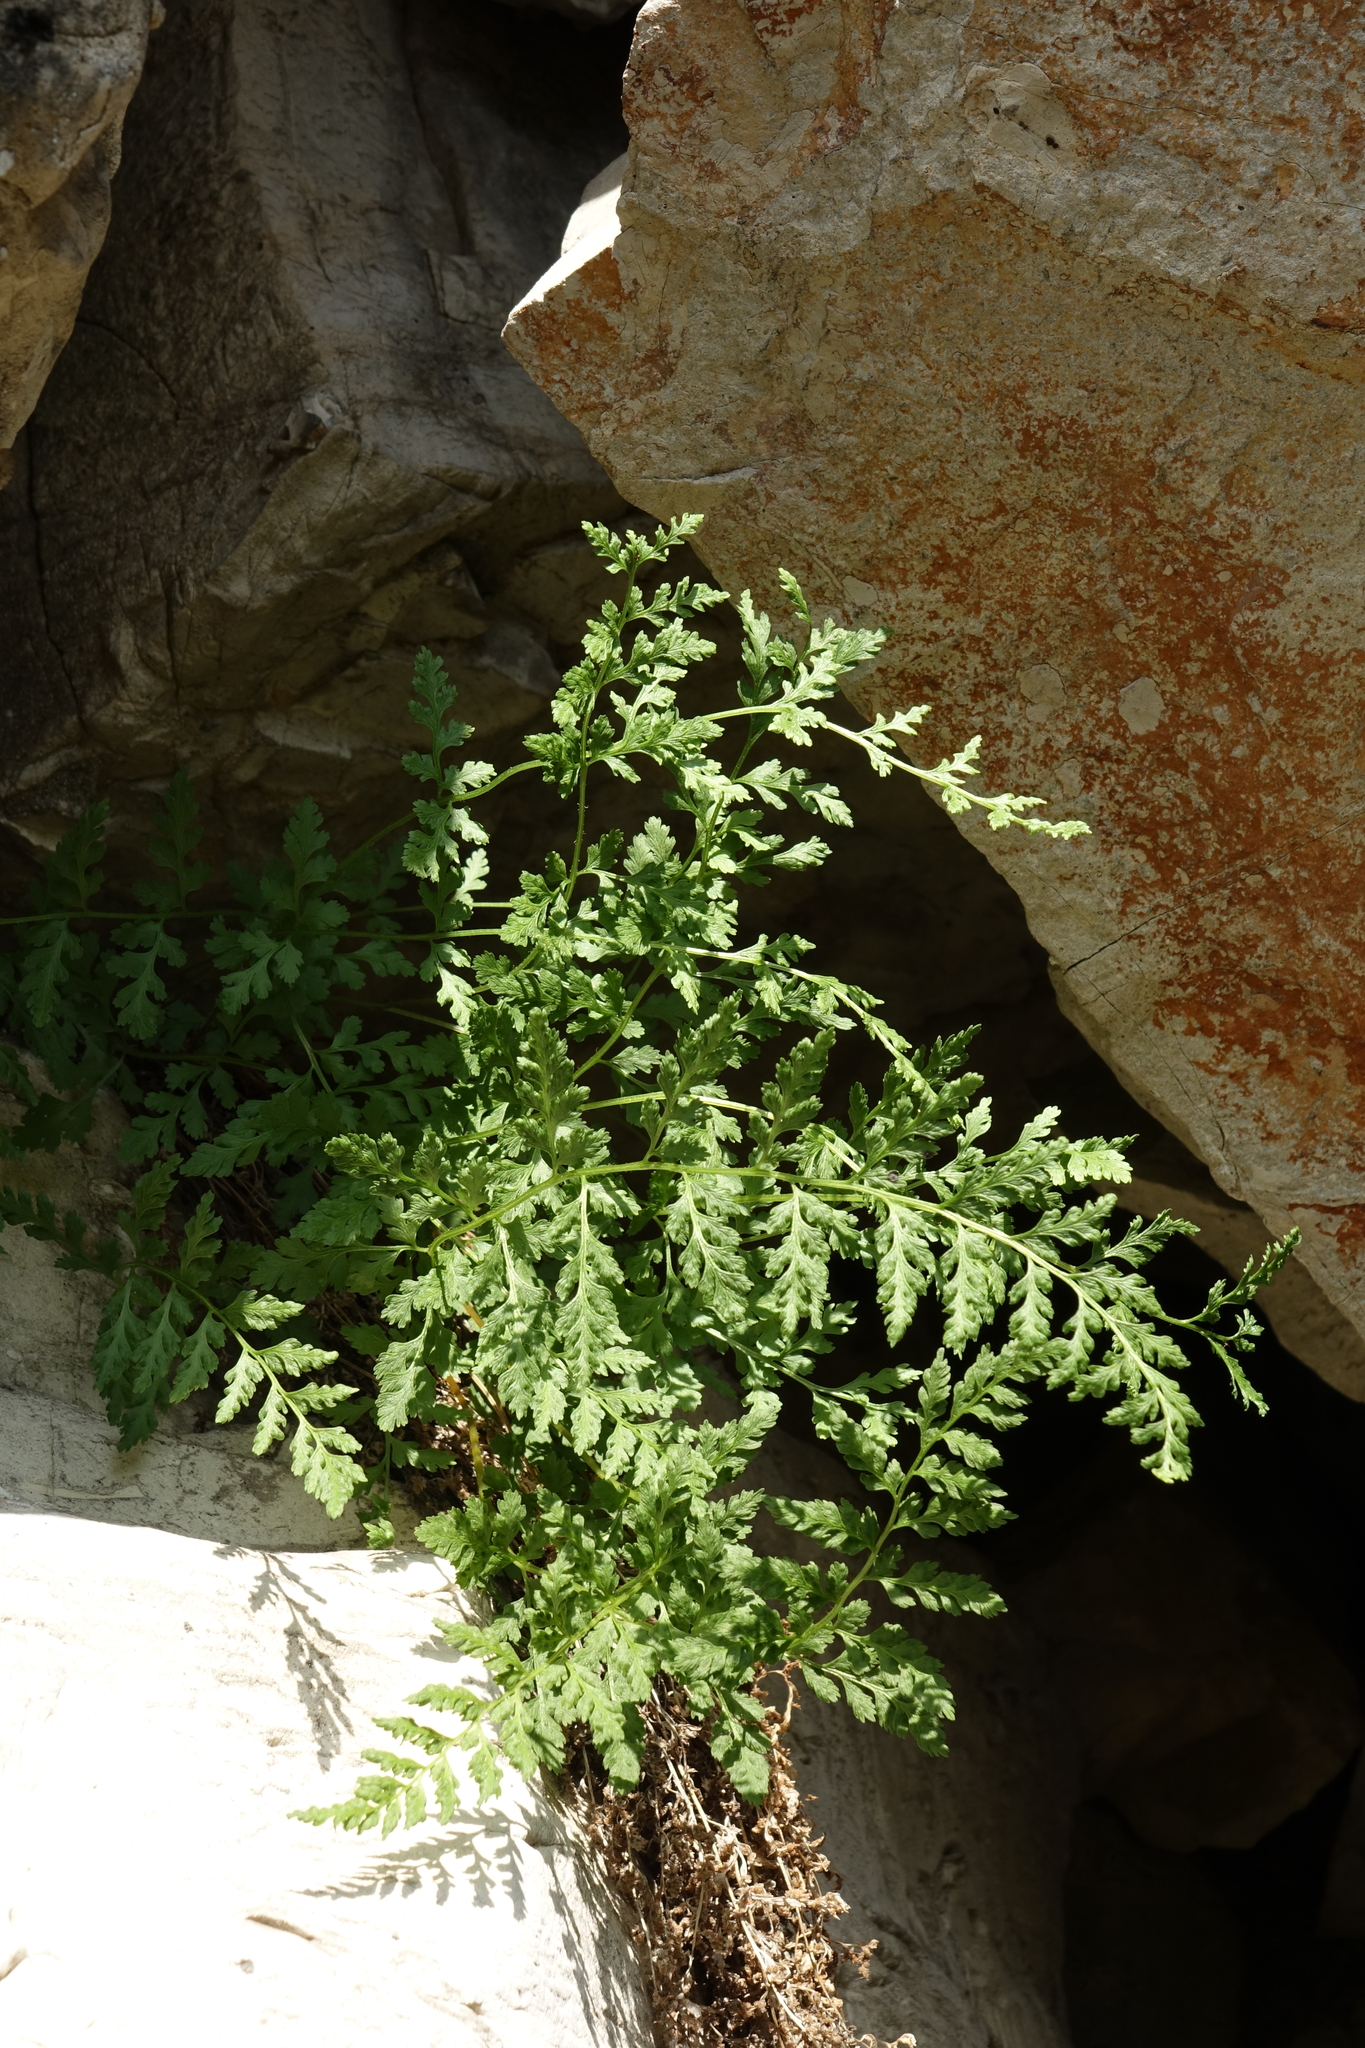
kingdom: Plantae
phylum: Tracheophyta
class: Polypodiopsida
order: Polypodiales
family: Cystopteridaceae
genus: Cystopteris
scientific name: Cystopteris fragilis
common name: Brittle bladder fern
